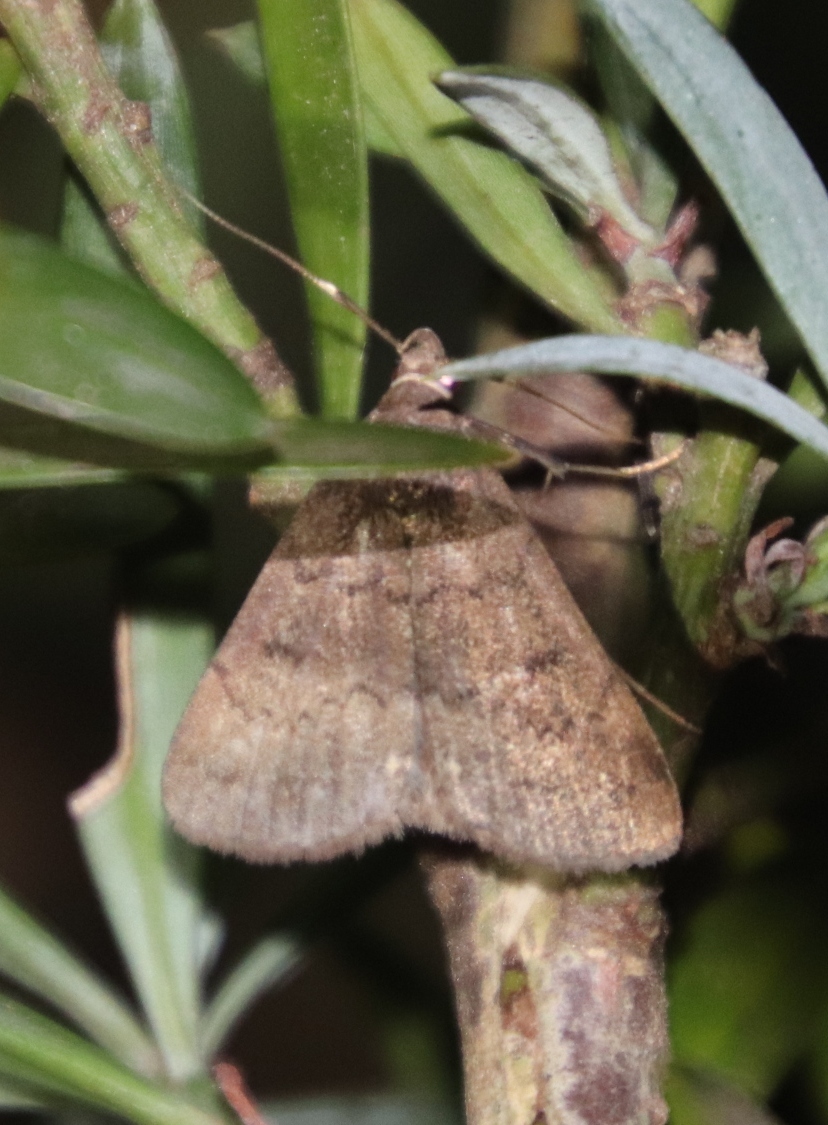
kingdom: Animalia
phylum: Arthropoda
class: Insecta
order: Lepidoptera
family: Erebidae
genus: Nodaria
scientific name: Nodaria nodosalis
